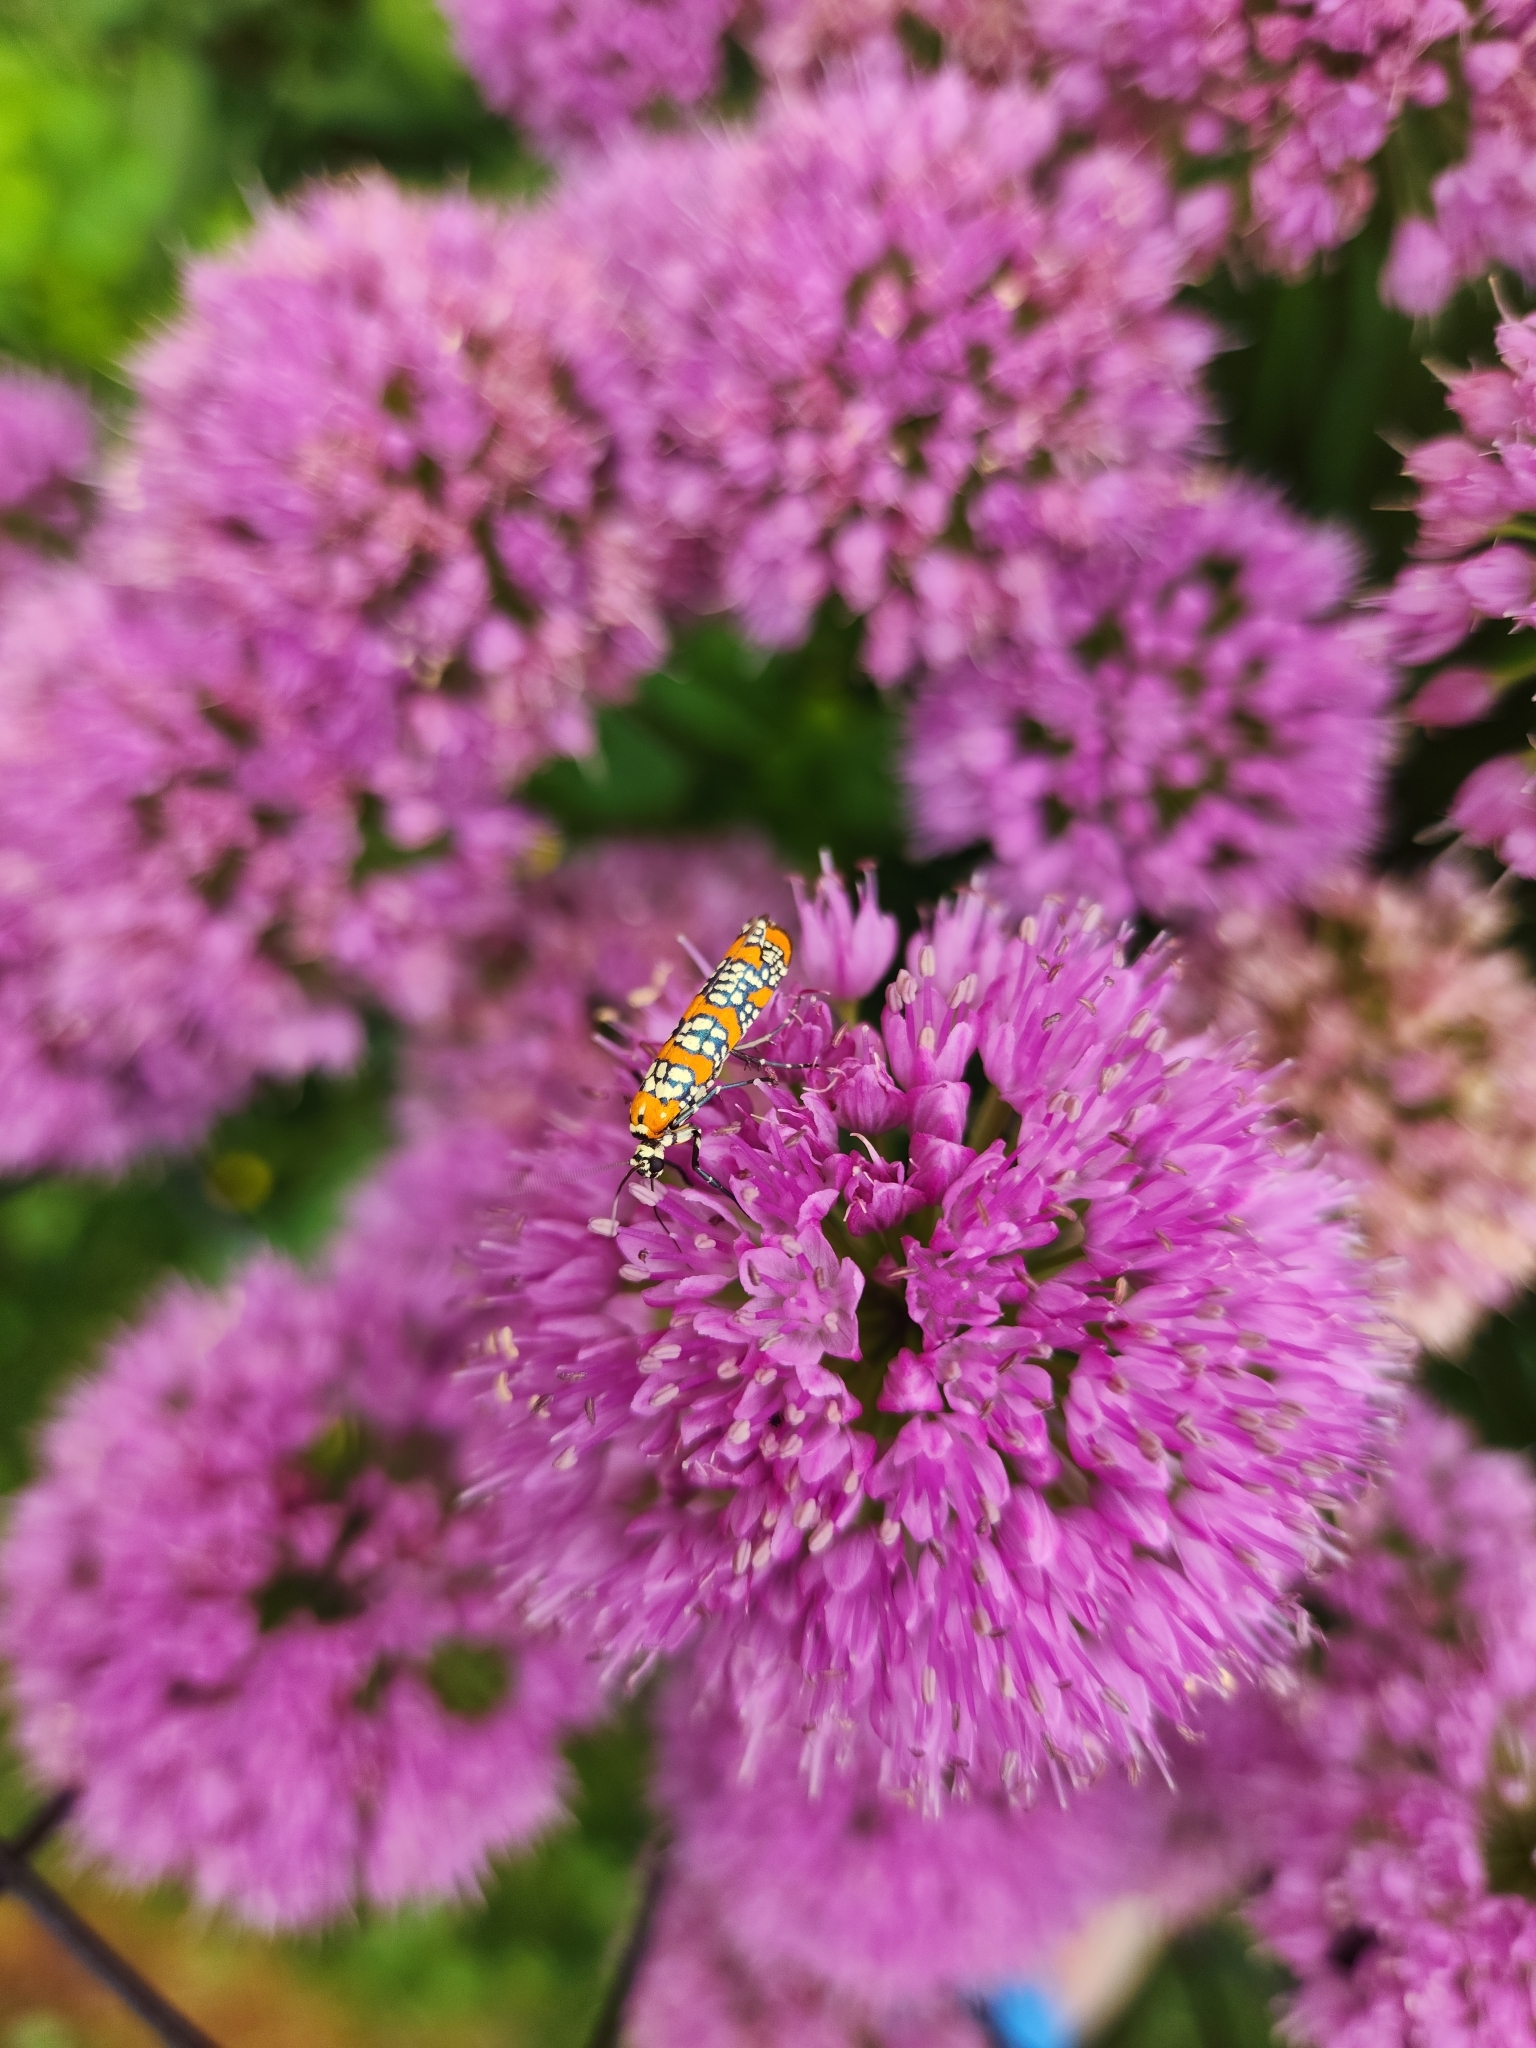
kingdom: Animalia
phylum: Arthropoda
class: Insecta
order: Lepidoptera
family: Attevidae
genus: Atteva
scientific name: Atteva punctella
